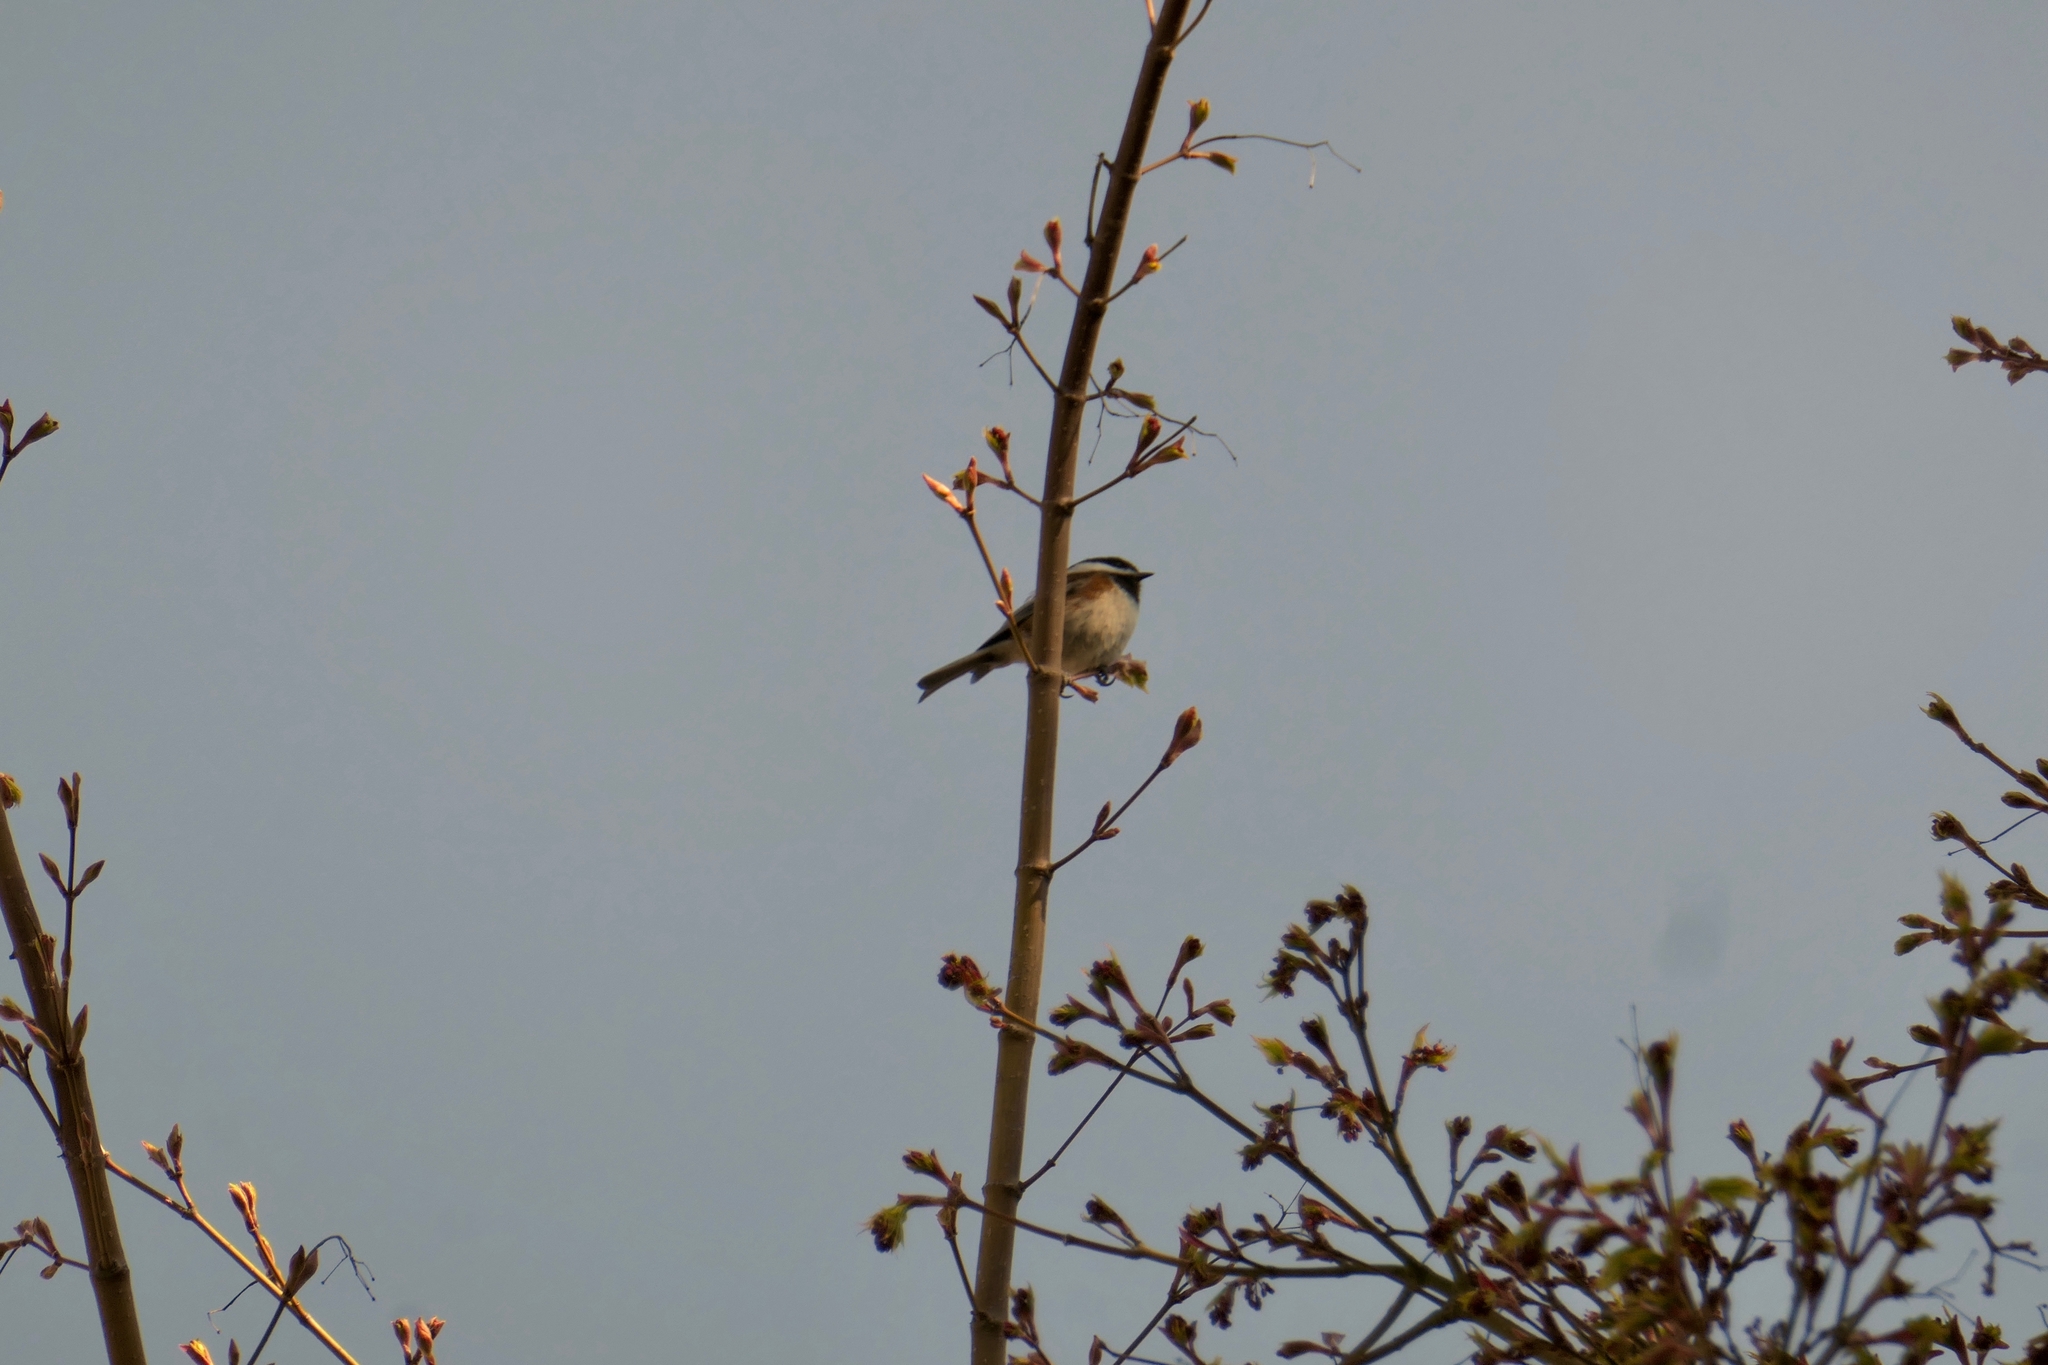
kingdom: Animalia
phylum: Chordata
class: Aves
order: Passeriformes
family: Paridae
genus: Poecile
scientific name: Poecile rufescens
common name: Chestnut-backed chickadee
